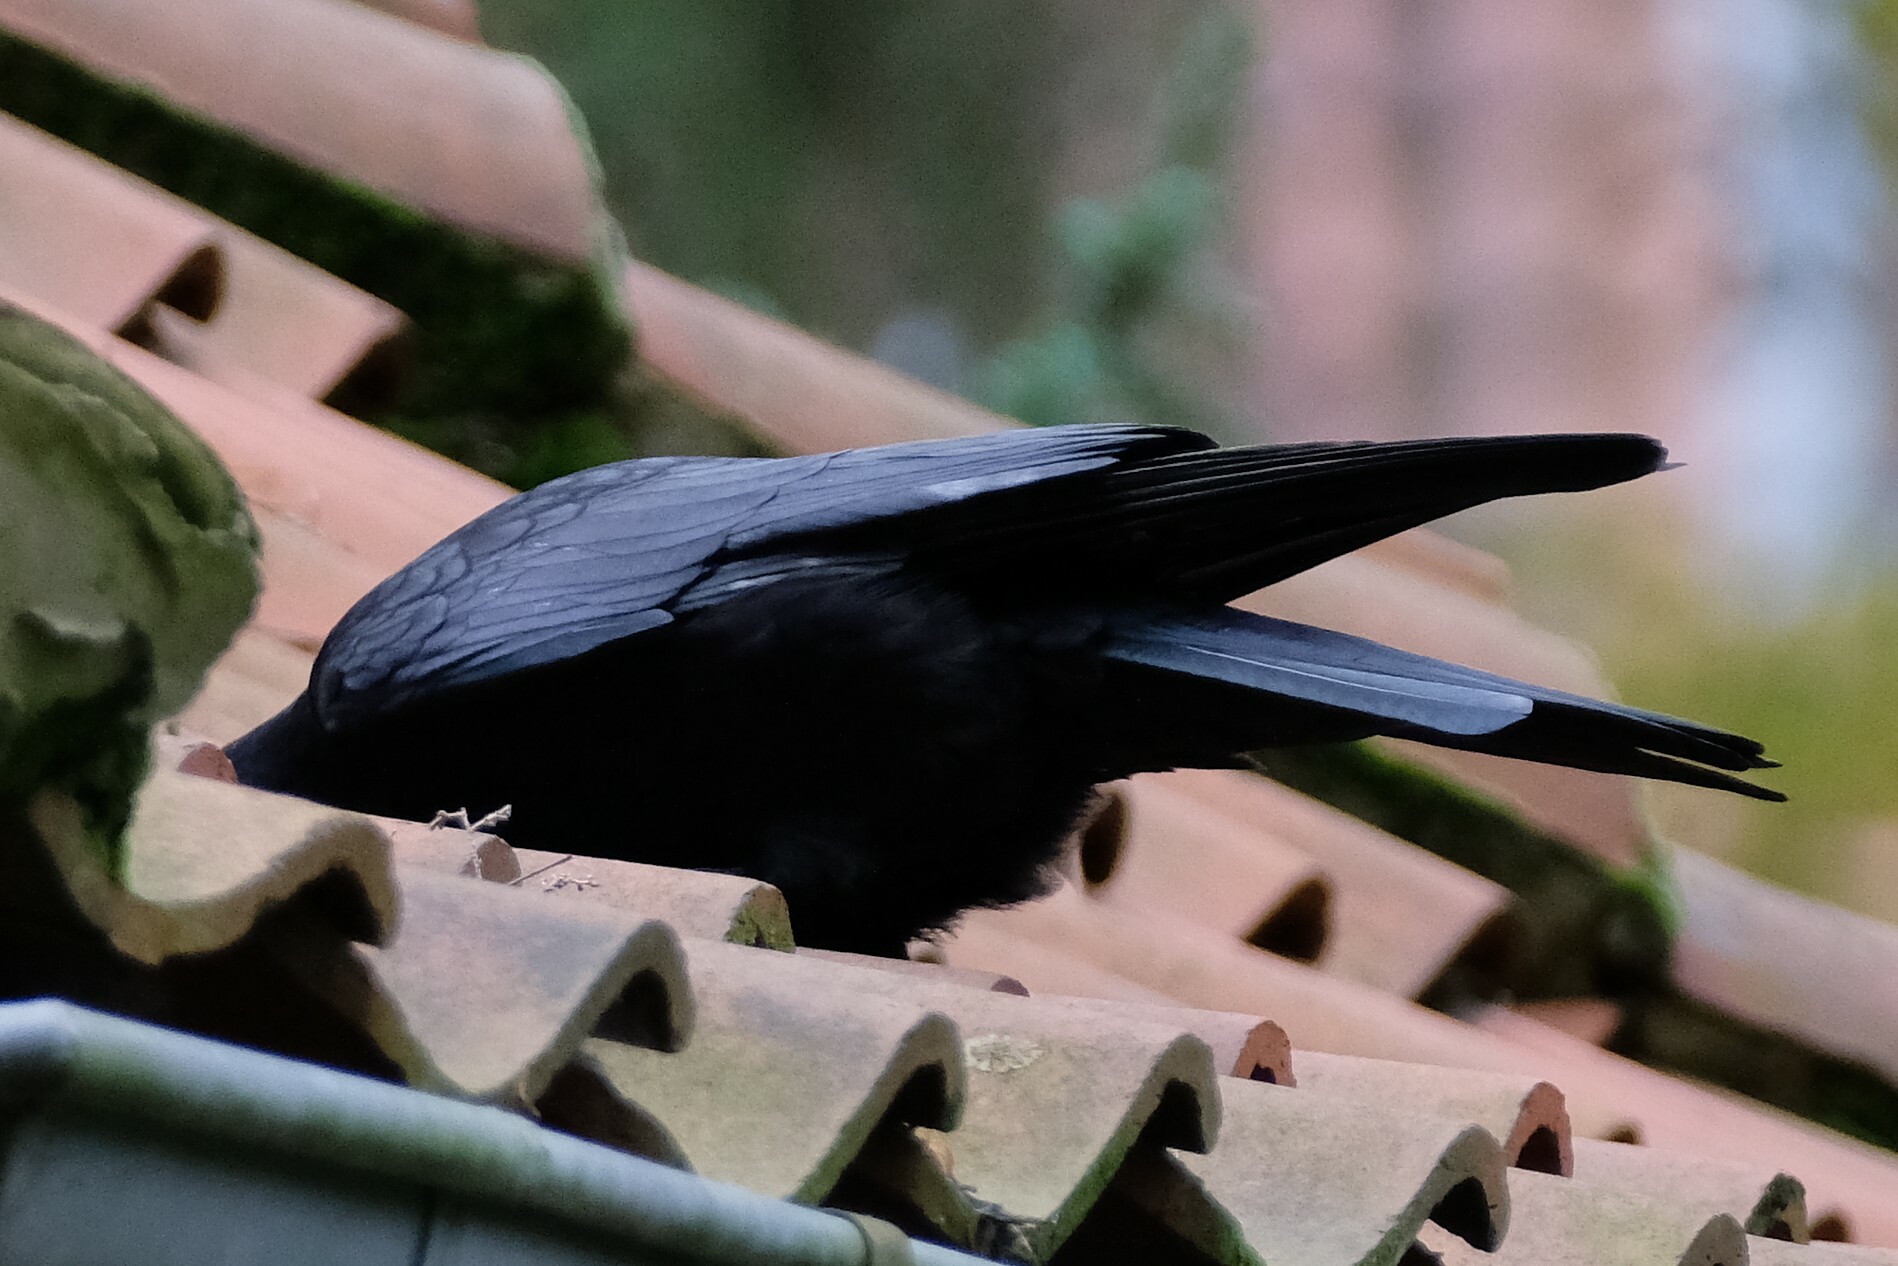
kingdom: Animalia
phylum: Chordata
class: Aves
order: Passeriformes
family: Corvidae
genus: Corvus
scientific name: Corvus corone
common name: Carrion crow
